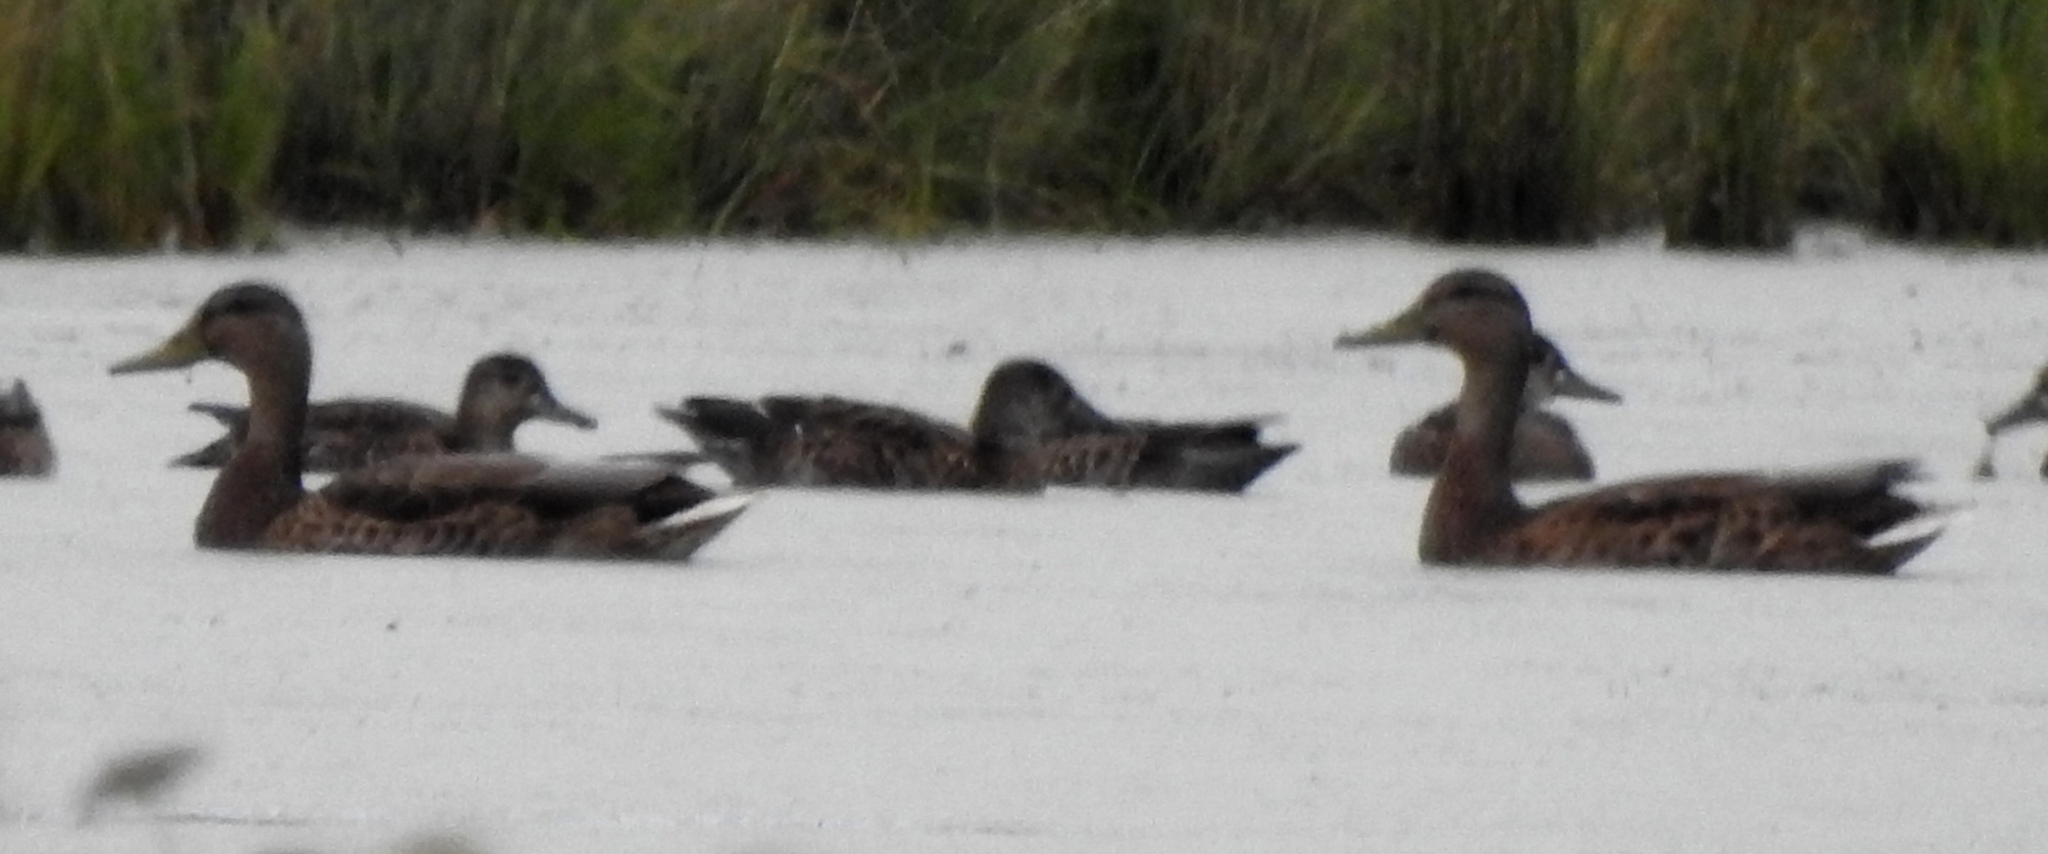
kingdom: Animalia
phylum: Chordata
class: Aves
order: Anseriformes
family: Anatidae
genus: Anas
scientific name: Anas platyrhynchos
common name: Mallard
